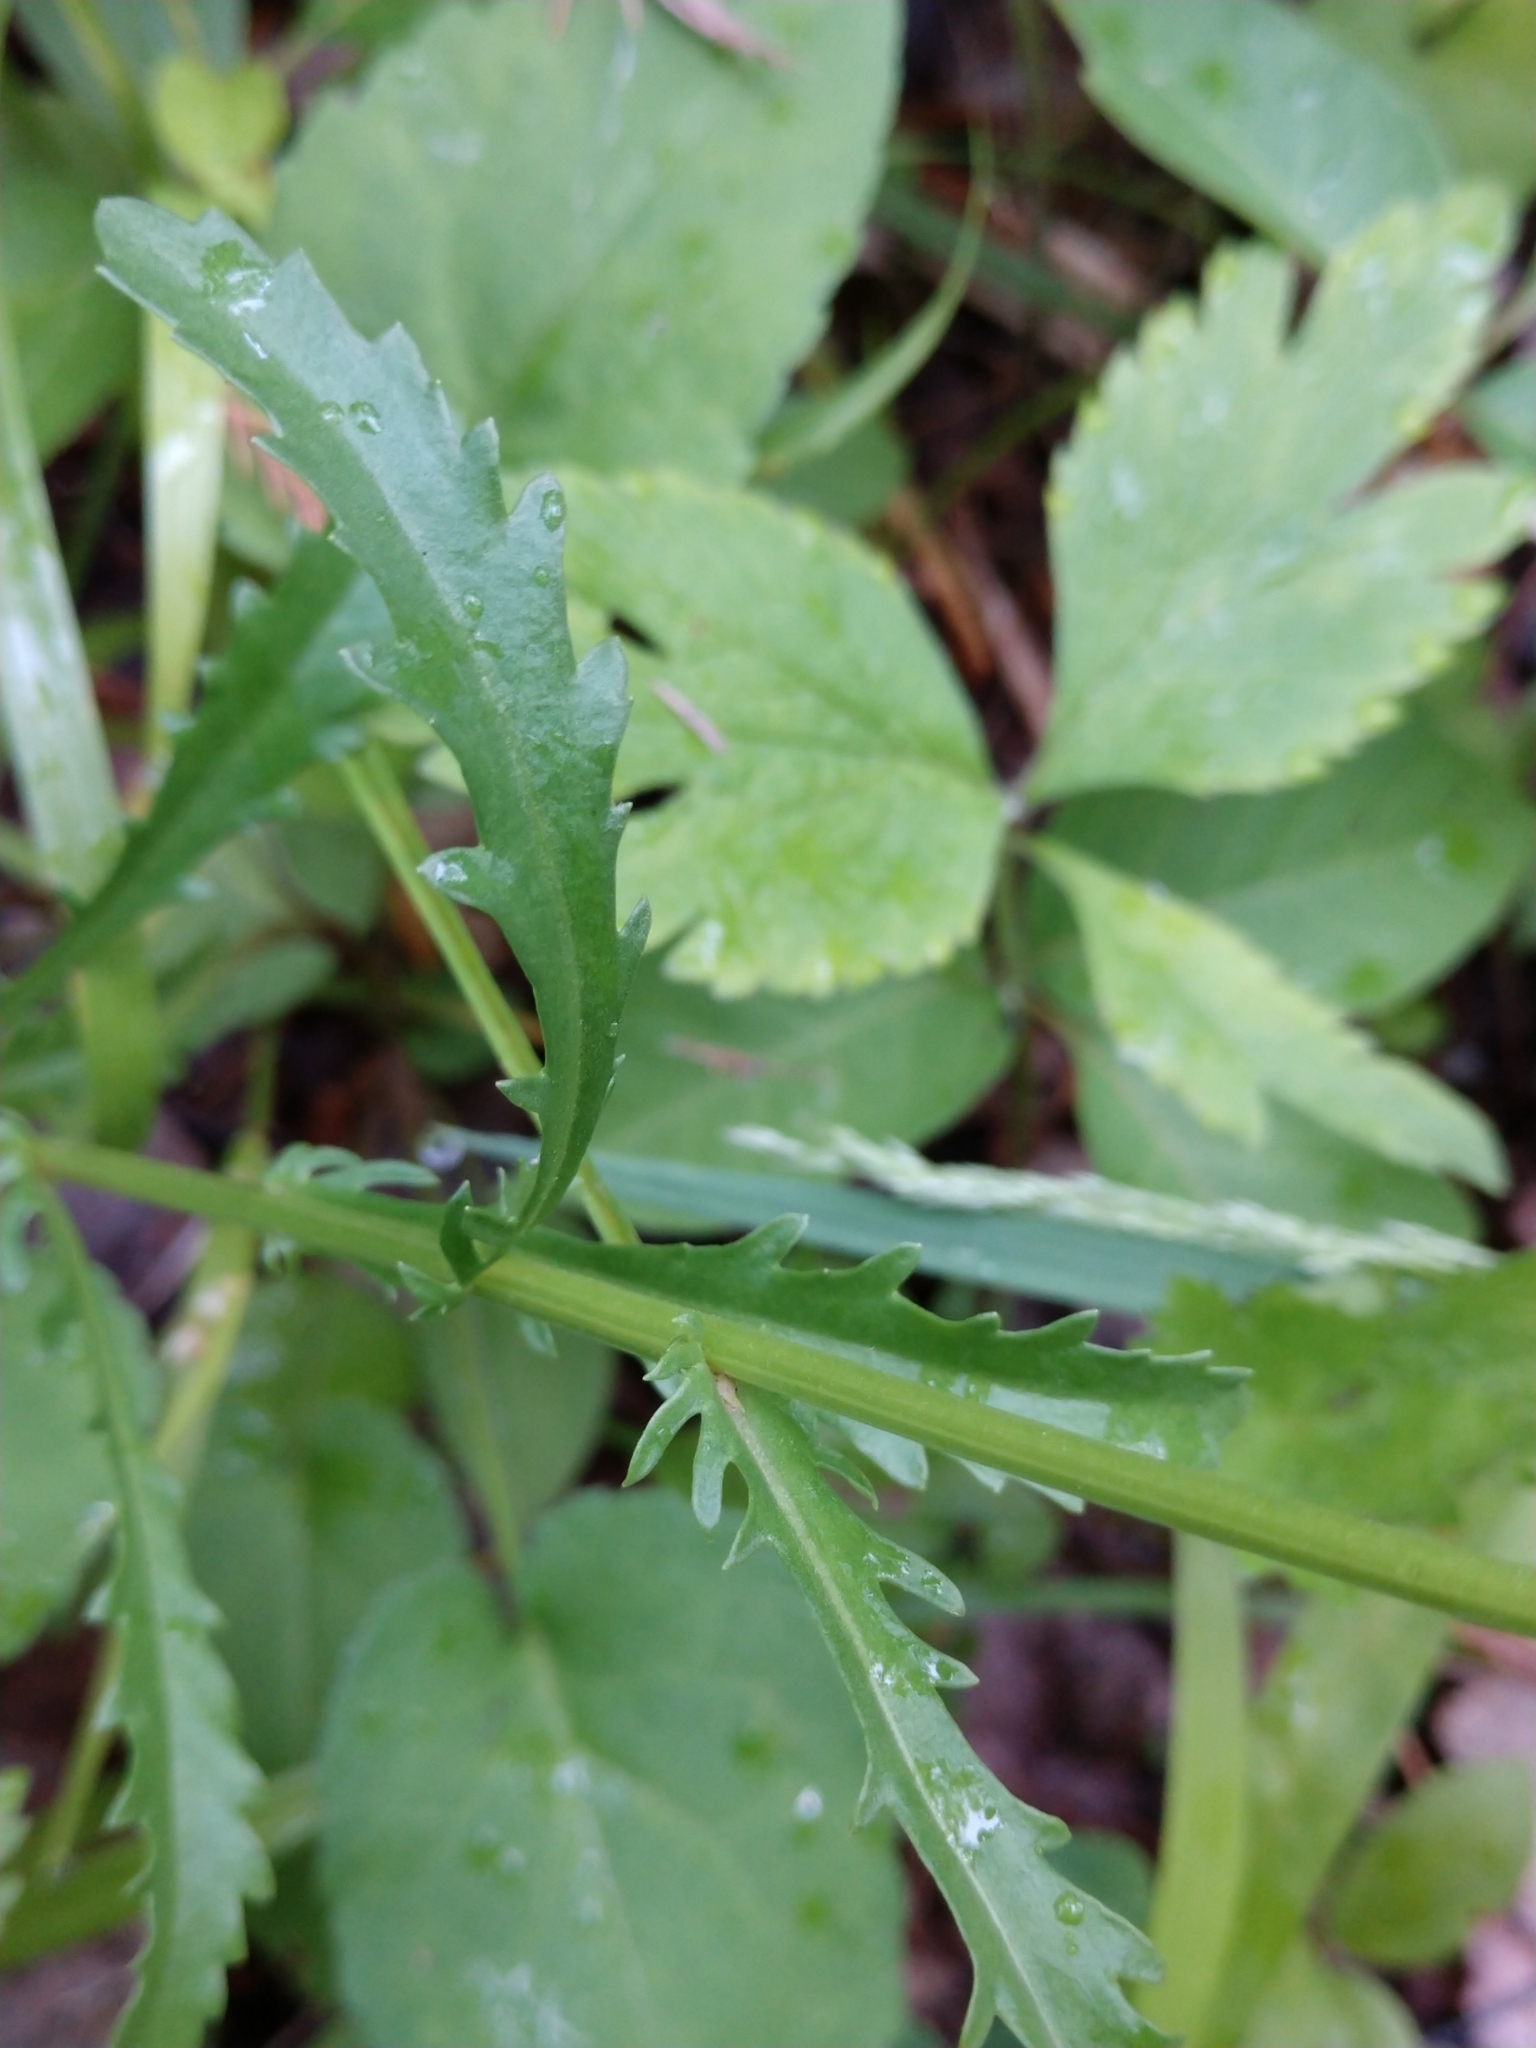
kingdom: Plantae
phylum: Tracheophyta
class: Magnoliopsida
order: Asterales
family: Asteraceae
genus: Leucanthemum
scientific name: Leucanthemum vulgare
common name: Oxeye daisy
